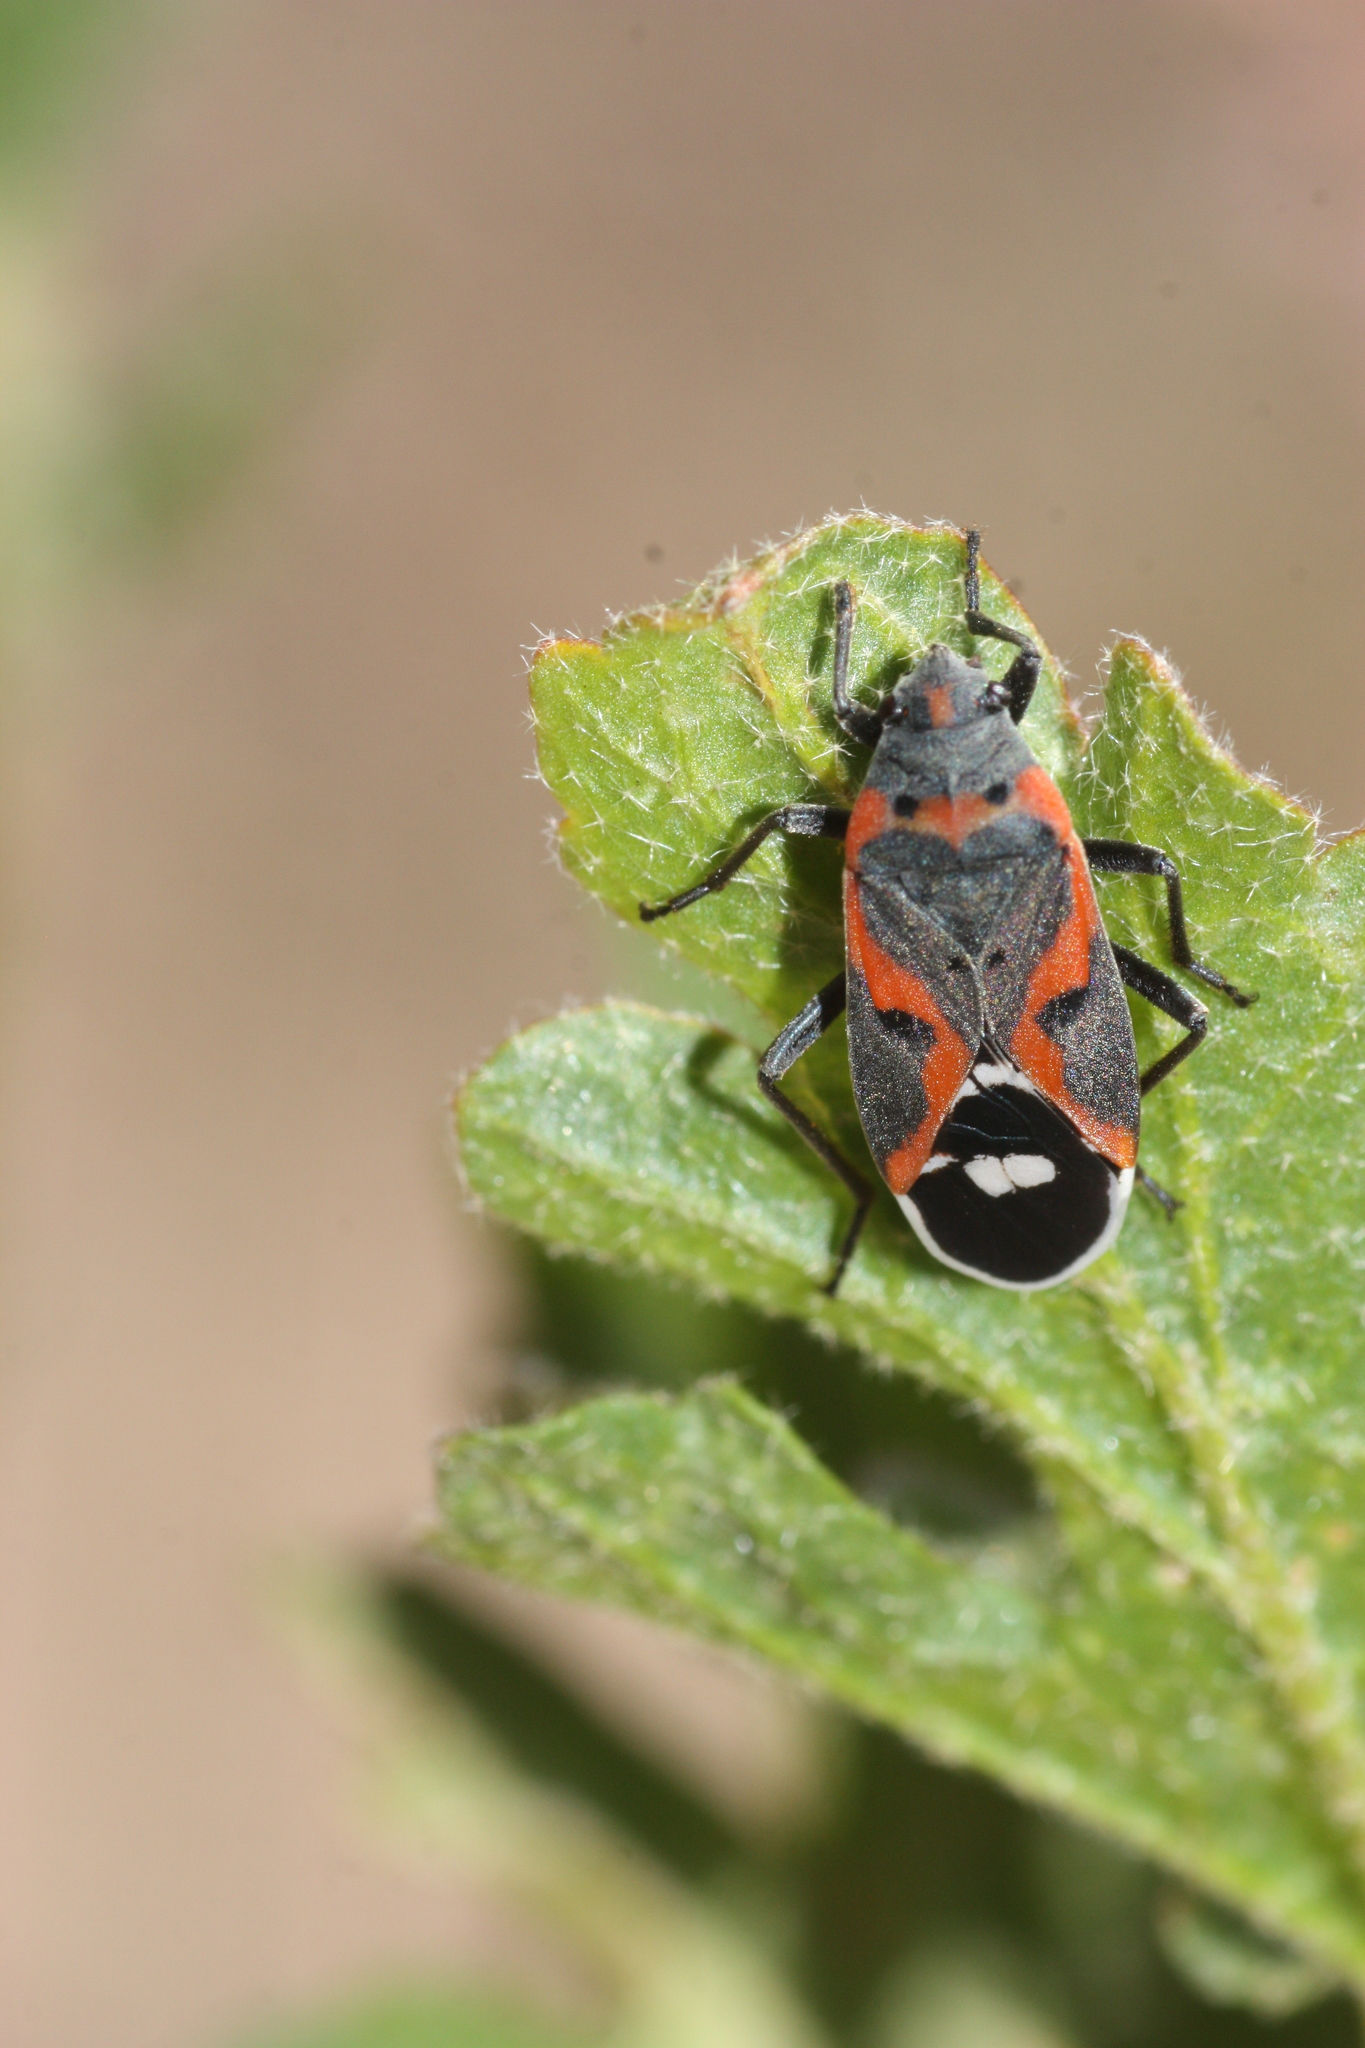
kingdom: Animalia
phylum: Arthropoda
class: Insecta
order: Hemiptera
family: Lygaeidae
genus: Lygaeus
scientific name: Lygaeus kalmii
